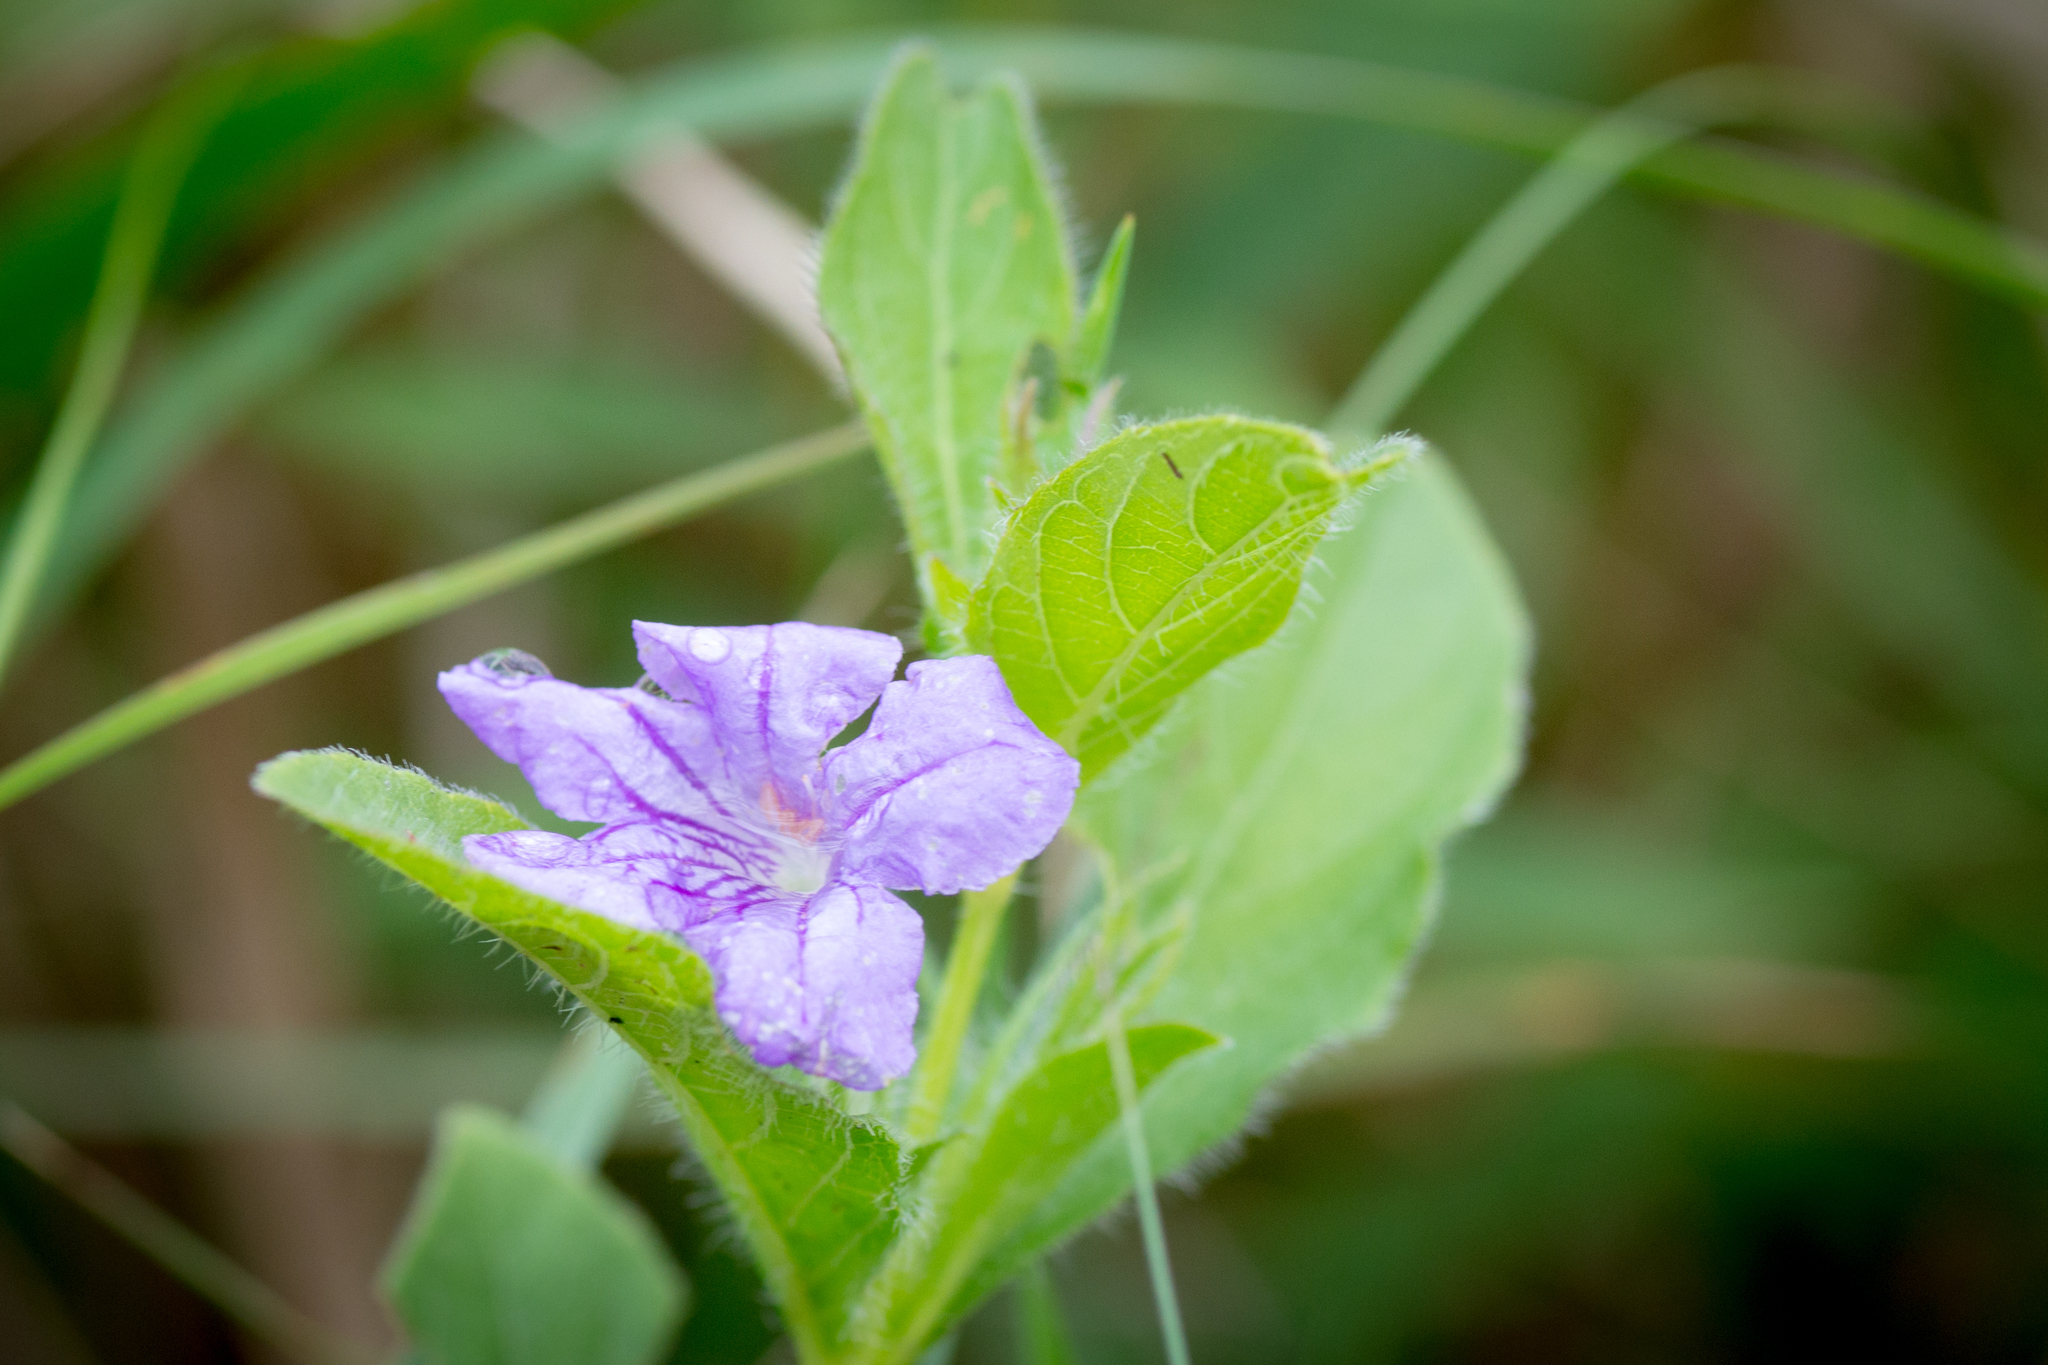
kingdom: Plantae
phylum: Tracheophyta
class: Magnoliopsida
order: Lamiales
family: Acanthaceae
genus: Ruellia
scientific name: Ruellia humilis
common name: Fringe-leaf ruellia
